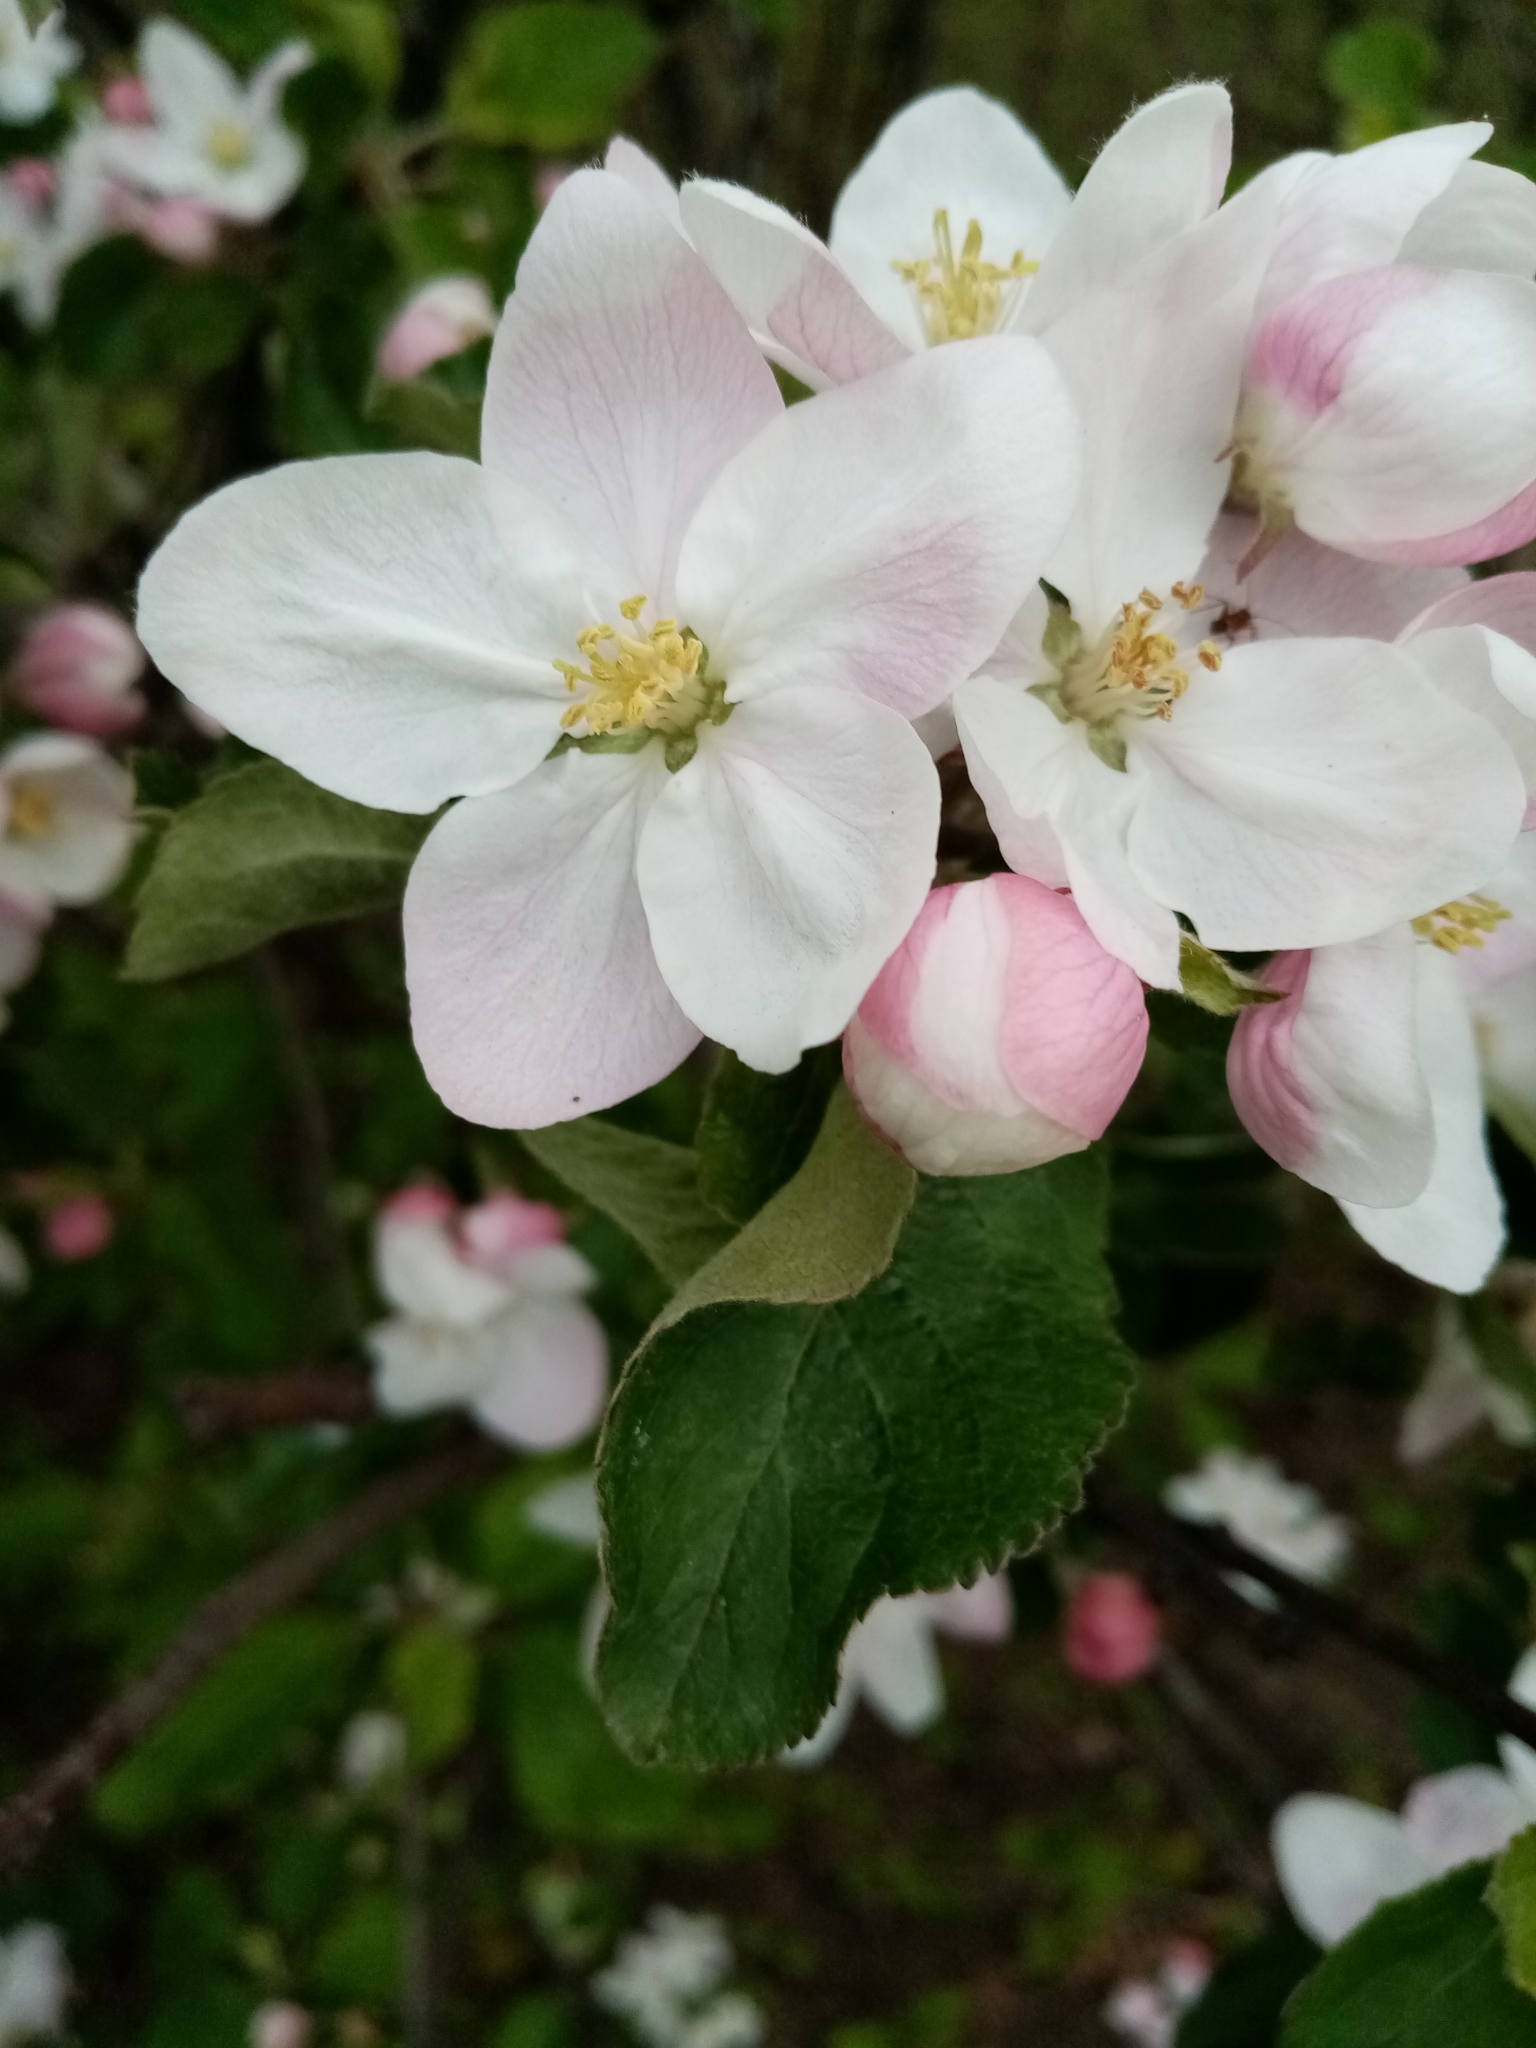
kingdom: Plantae
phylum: Tracheophyta
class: Magnoliopsida
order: Rosales
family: Rosaceae
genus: Malus
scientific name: Malus domestica
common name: Apple
